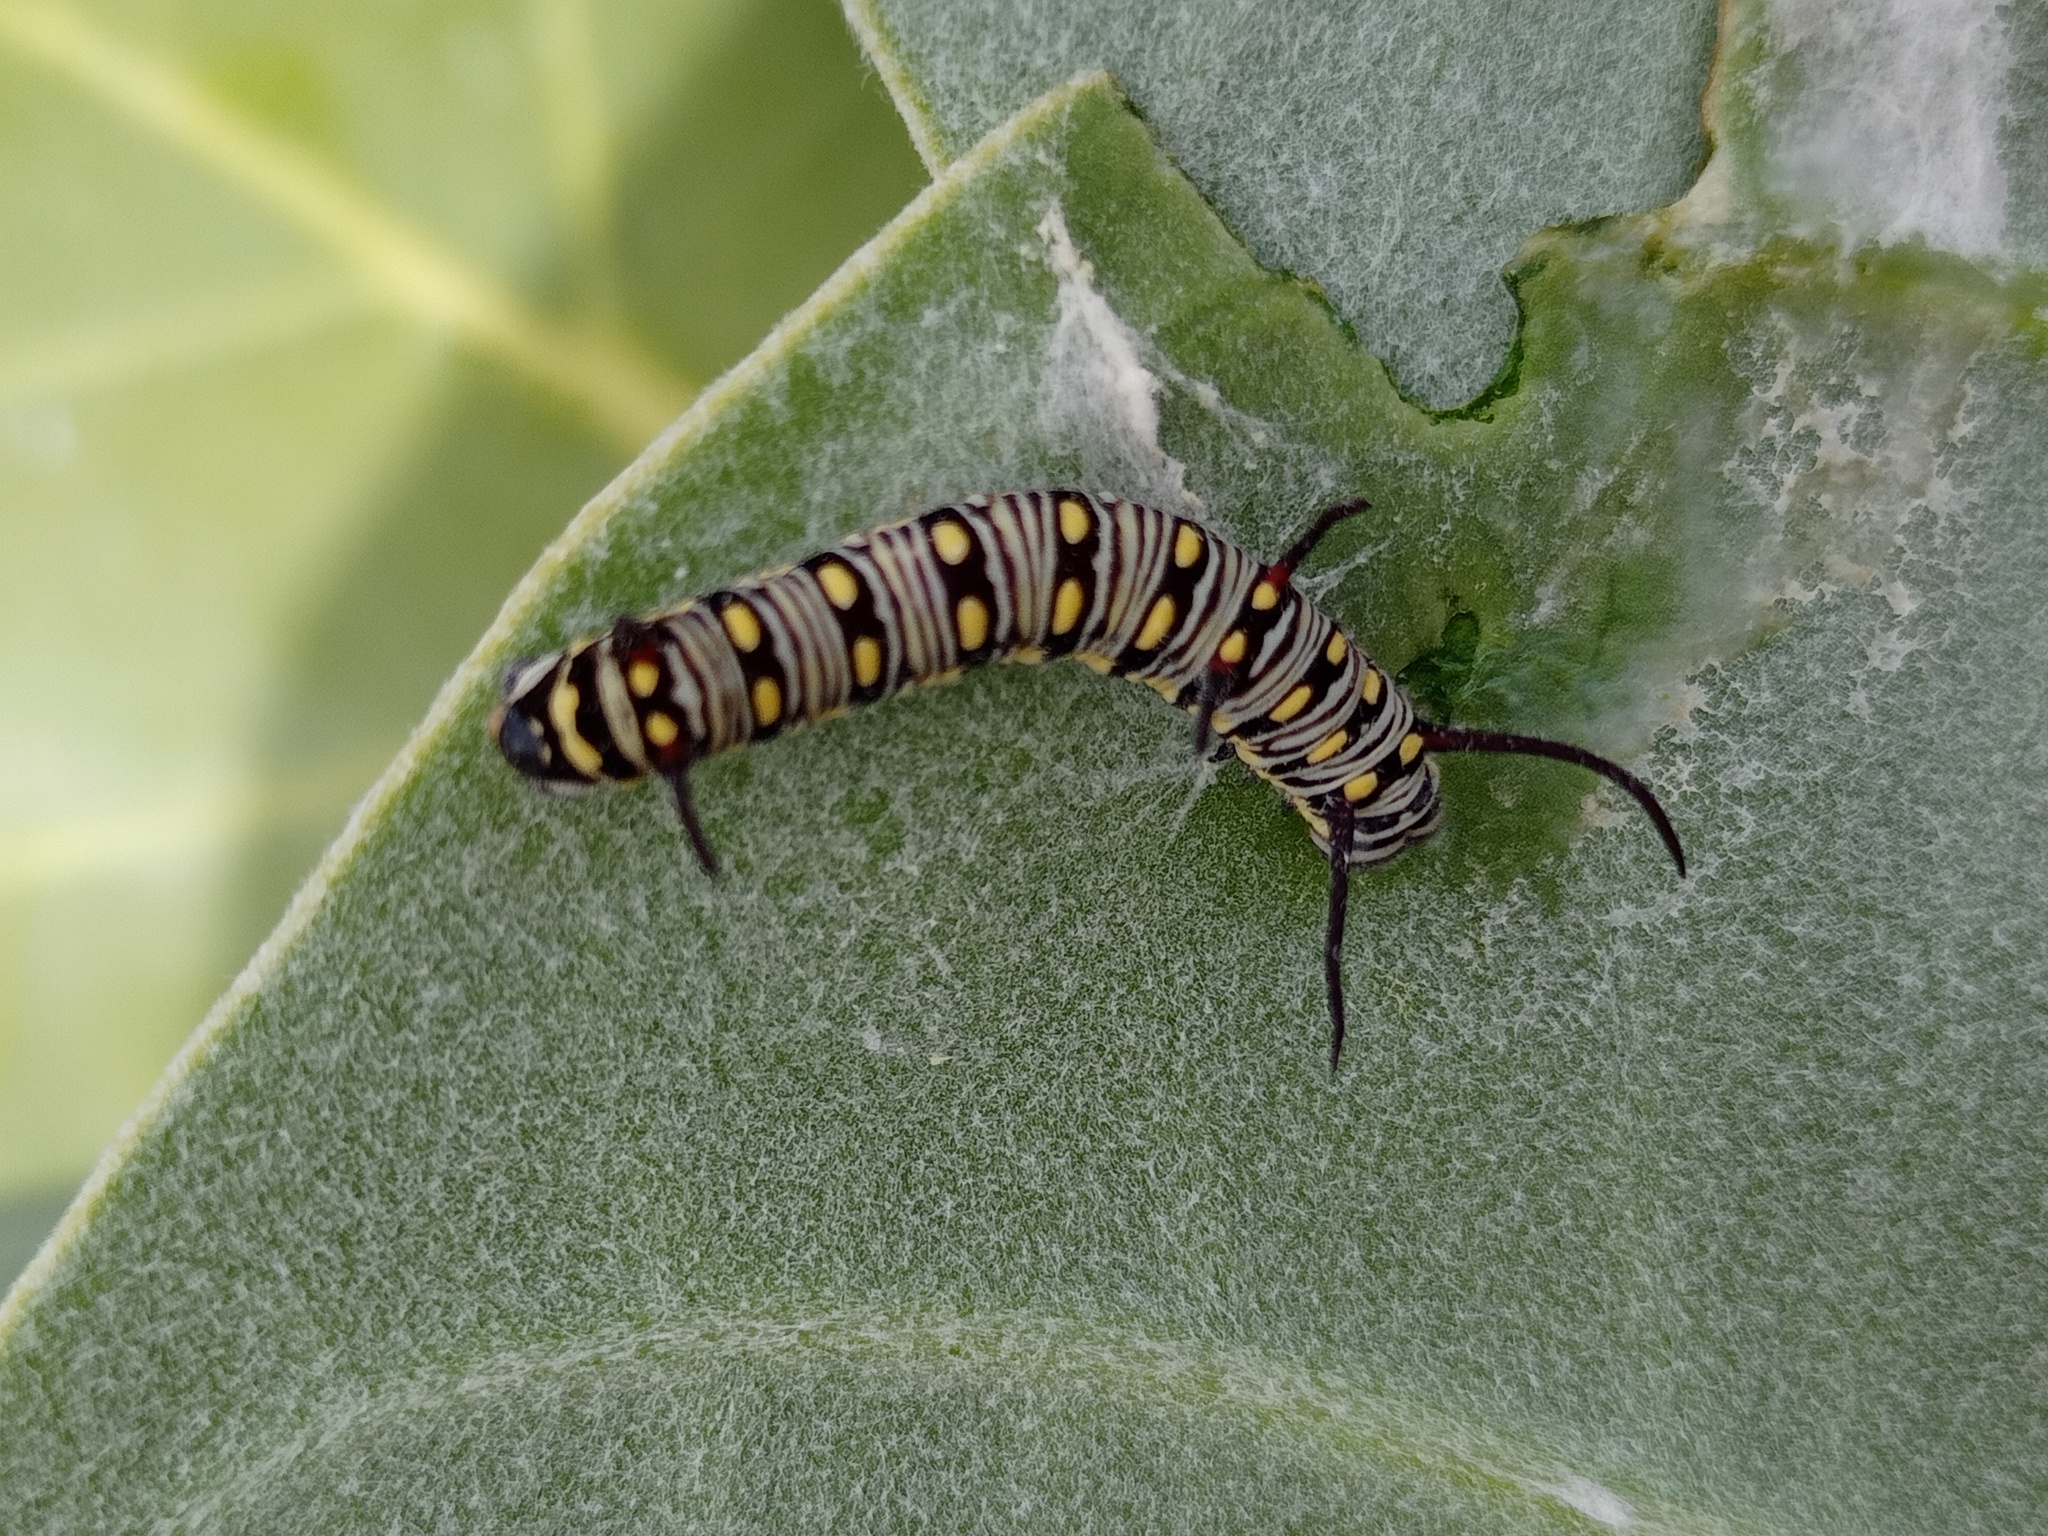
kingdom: Animalia
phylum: Arthropoda
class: Insecta
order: Lepidoptera
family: Nymphalidae
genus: Danaus
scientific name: Danaus chrysippus
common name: Plain tiger
